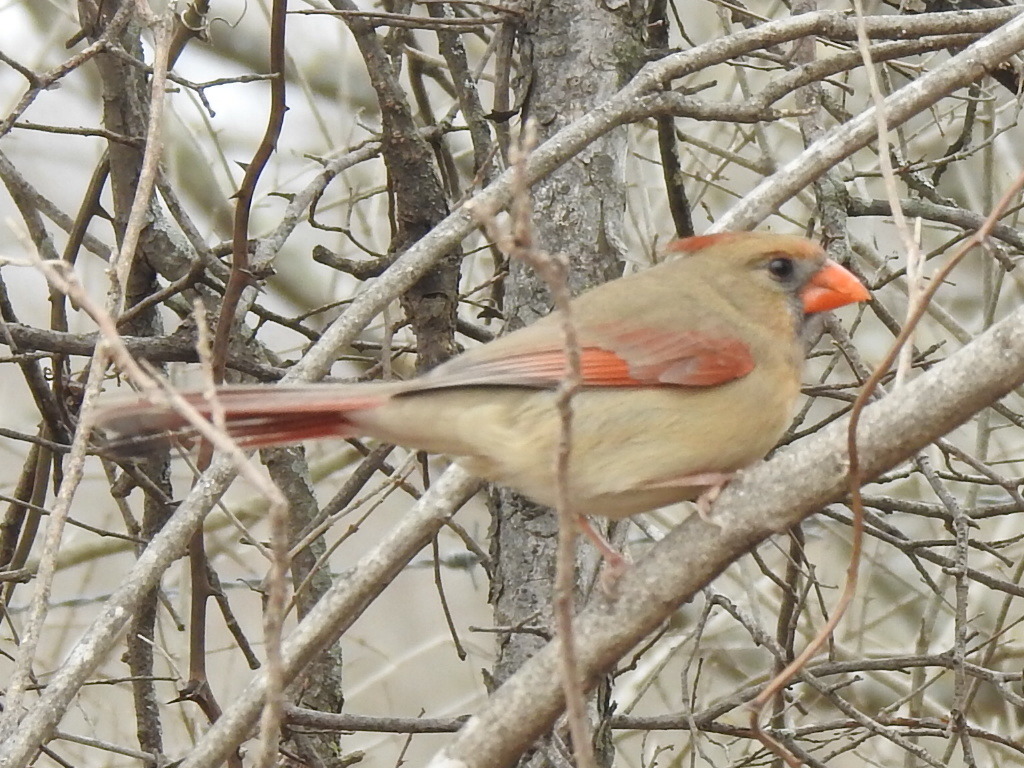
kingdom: Animalia
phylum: Chordata
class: Aves
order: Passeriformes
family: Cardinalidae
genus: Cardinalis
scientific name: Cardinalis cardinalis
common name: Northern cardinal
